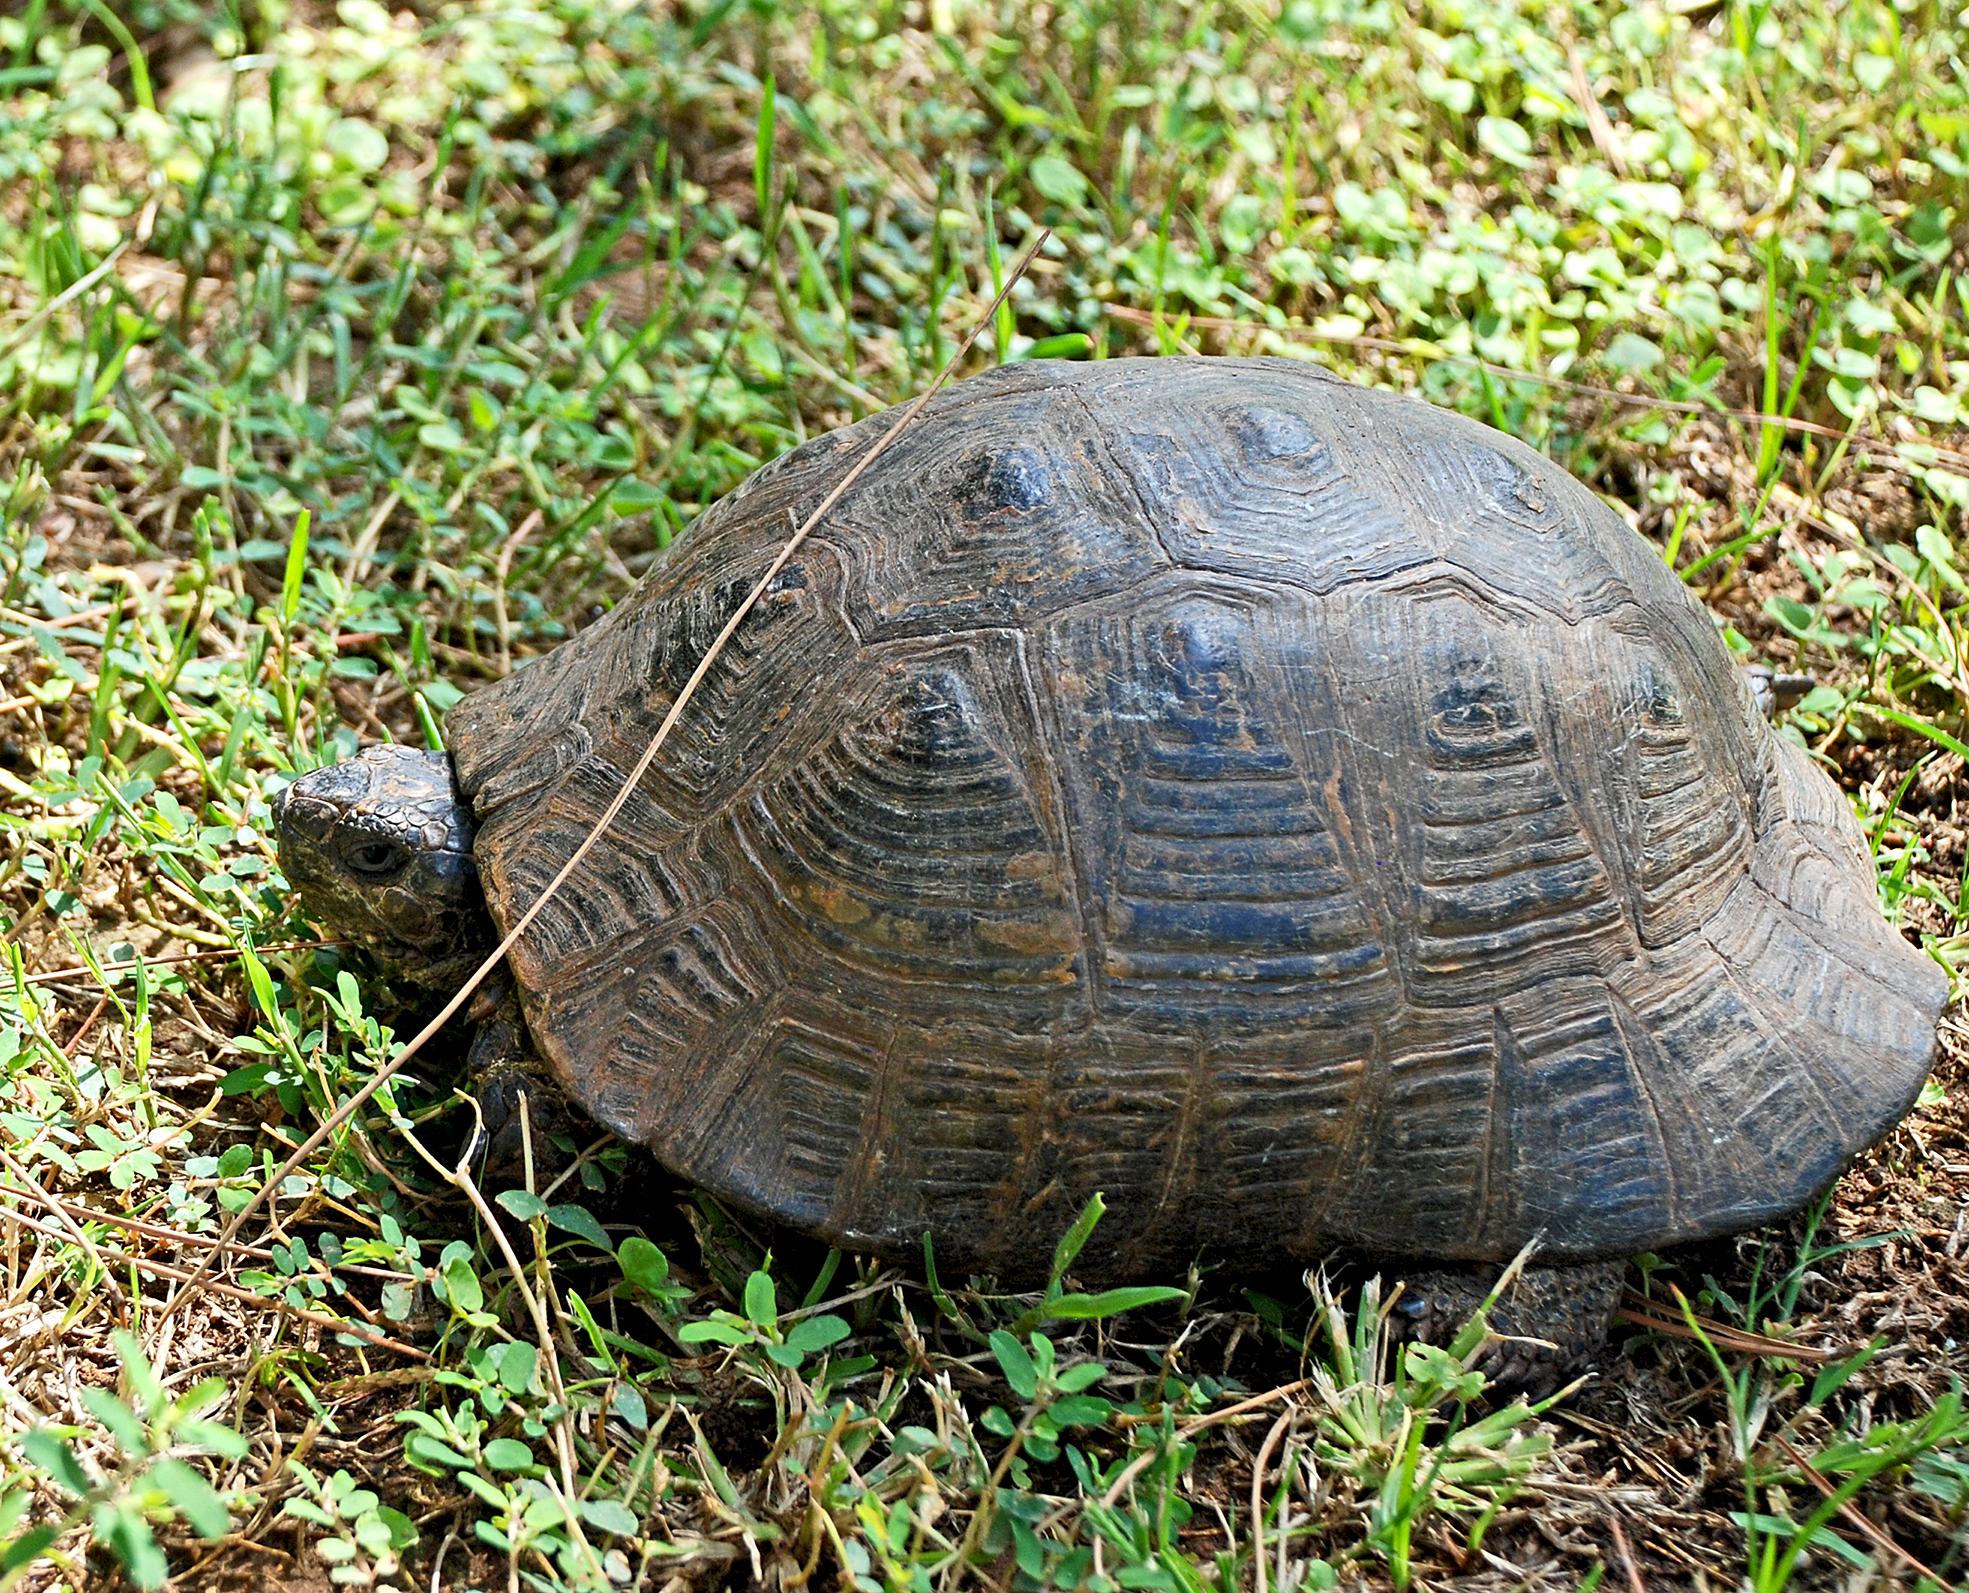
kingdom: Animalia
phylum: Chordata
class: Testudines
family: Testudinidae
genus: Testudo
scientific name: Testudo graeca
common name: Common tortoise
